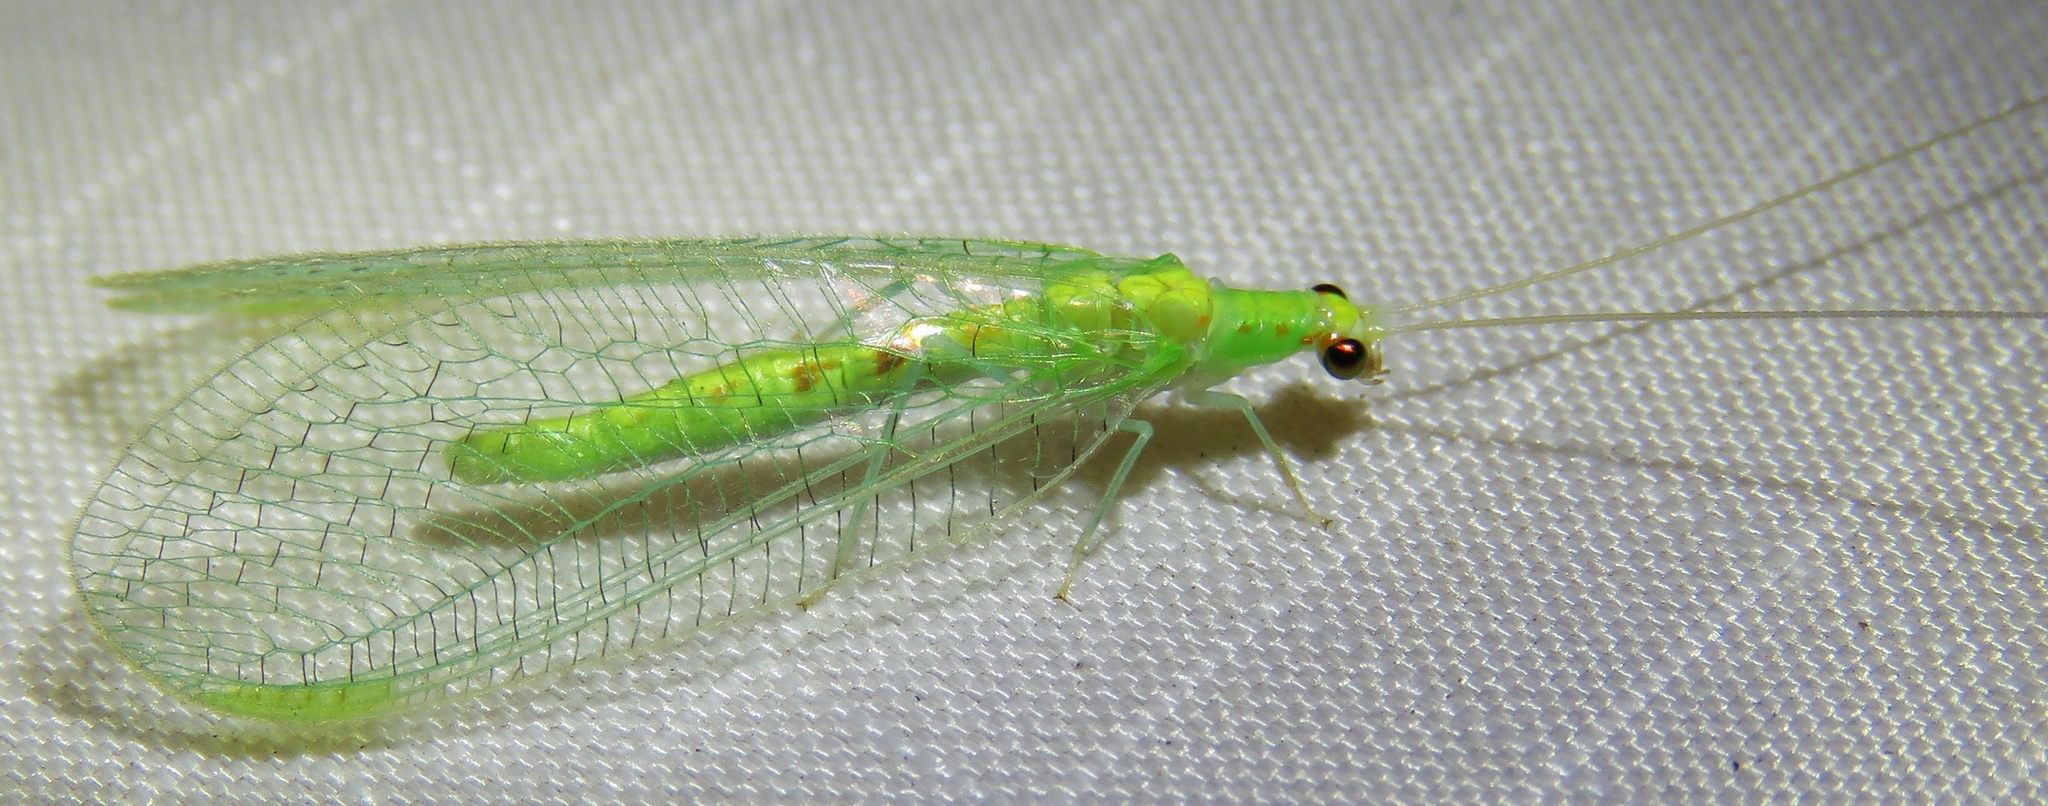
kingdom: Animalia
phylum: Arthropoda
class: Insecta
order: Neuroptera
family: Chrysopidae
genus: Chrysopa
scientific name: Chrysopa quadripunctata
